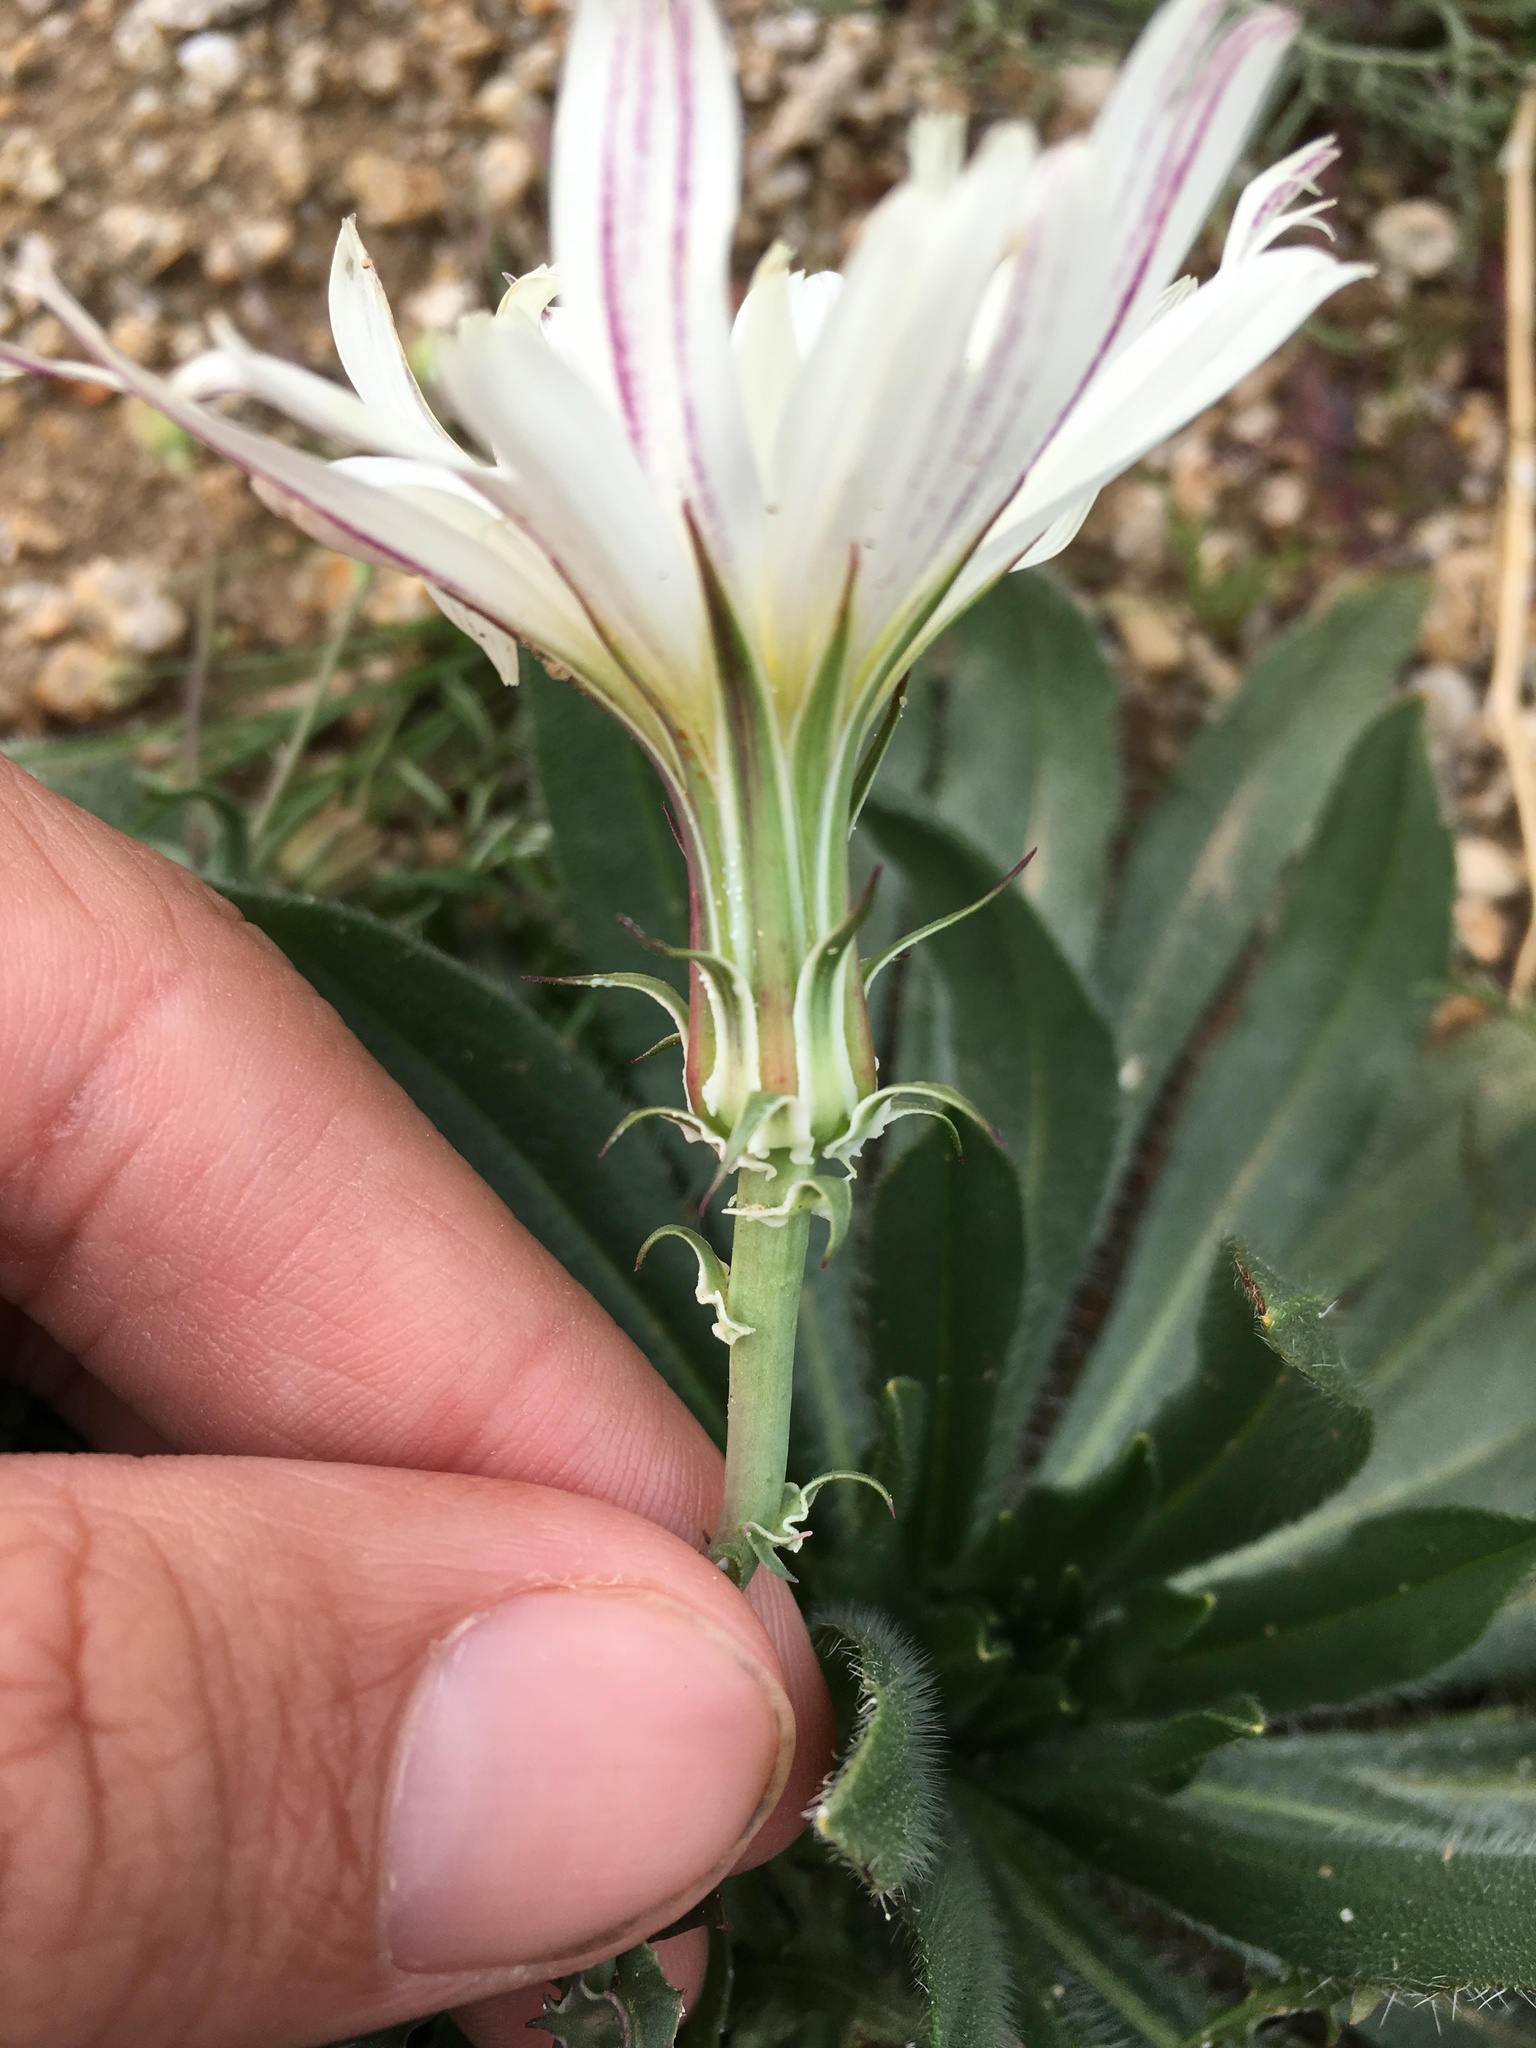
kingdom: Plantae
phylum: Tracheophyta
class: Magnoliopsida
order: Asterales
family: Asteraceae
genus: Rafinesquia
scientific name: Rafinesquia neomexicana
